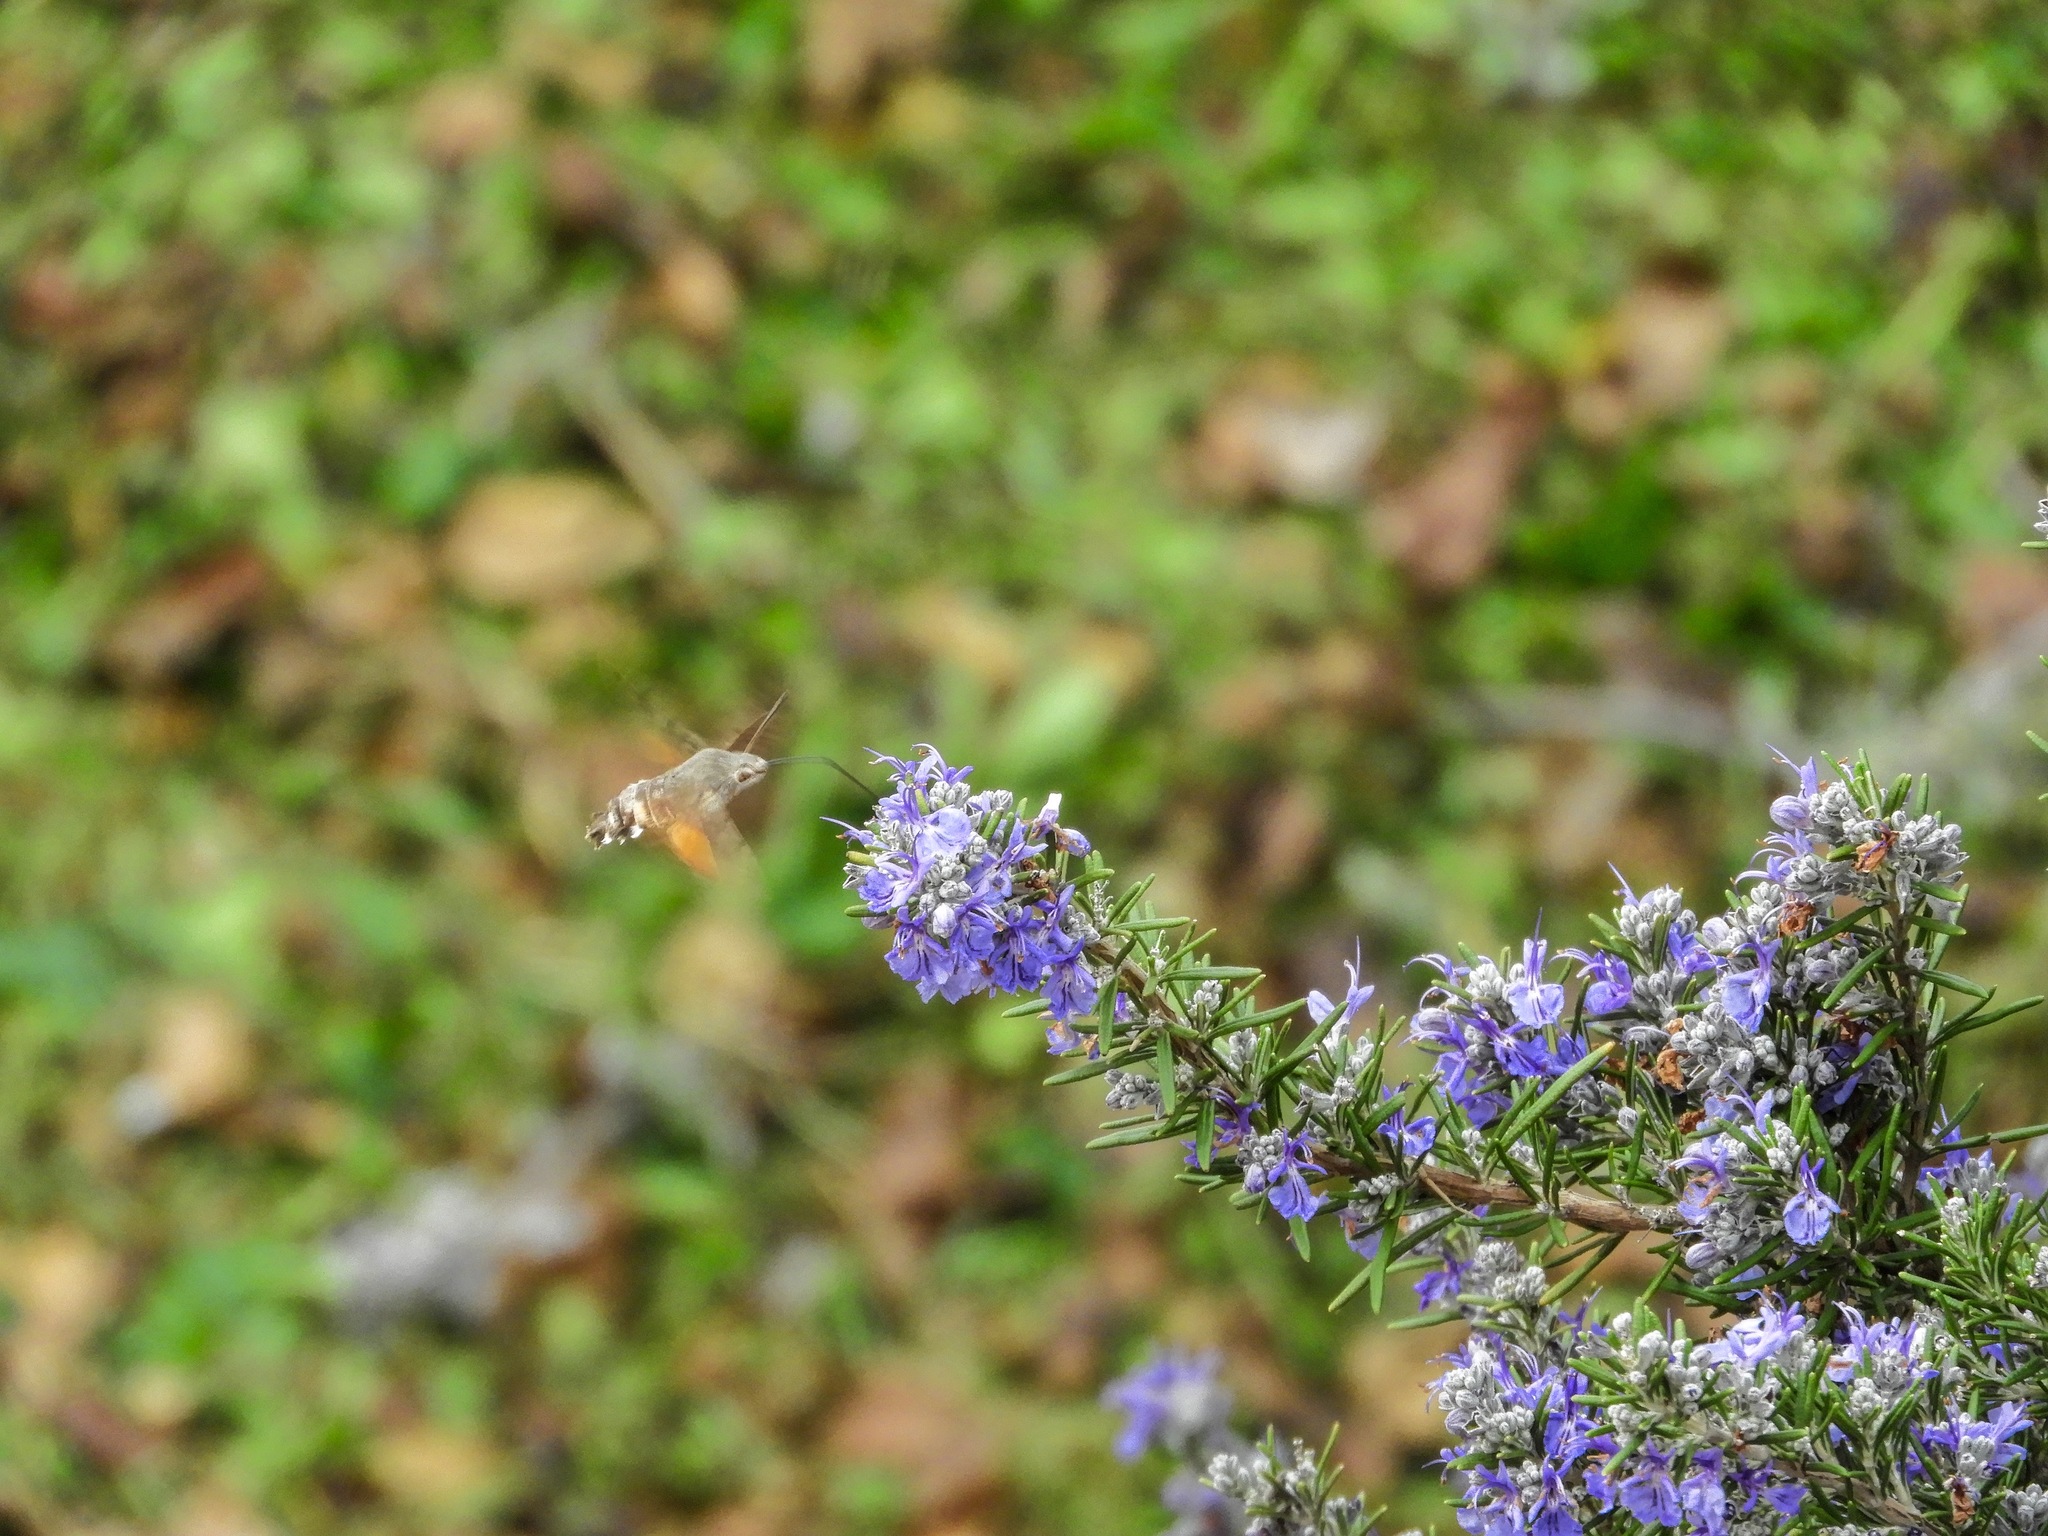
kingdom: Animalia
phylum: Arthropoda
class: Insecta
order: Lepidoptera
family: Sphingidae
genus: Macroglossum
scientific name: Macroglossum stellatarum
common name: Humming-bird hawk-moth
